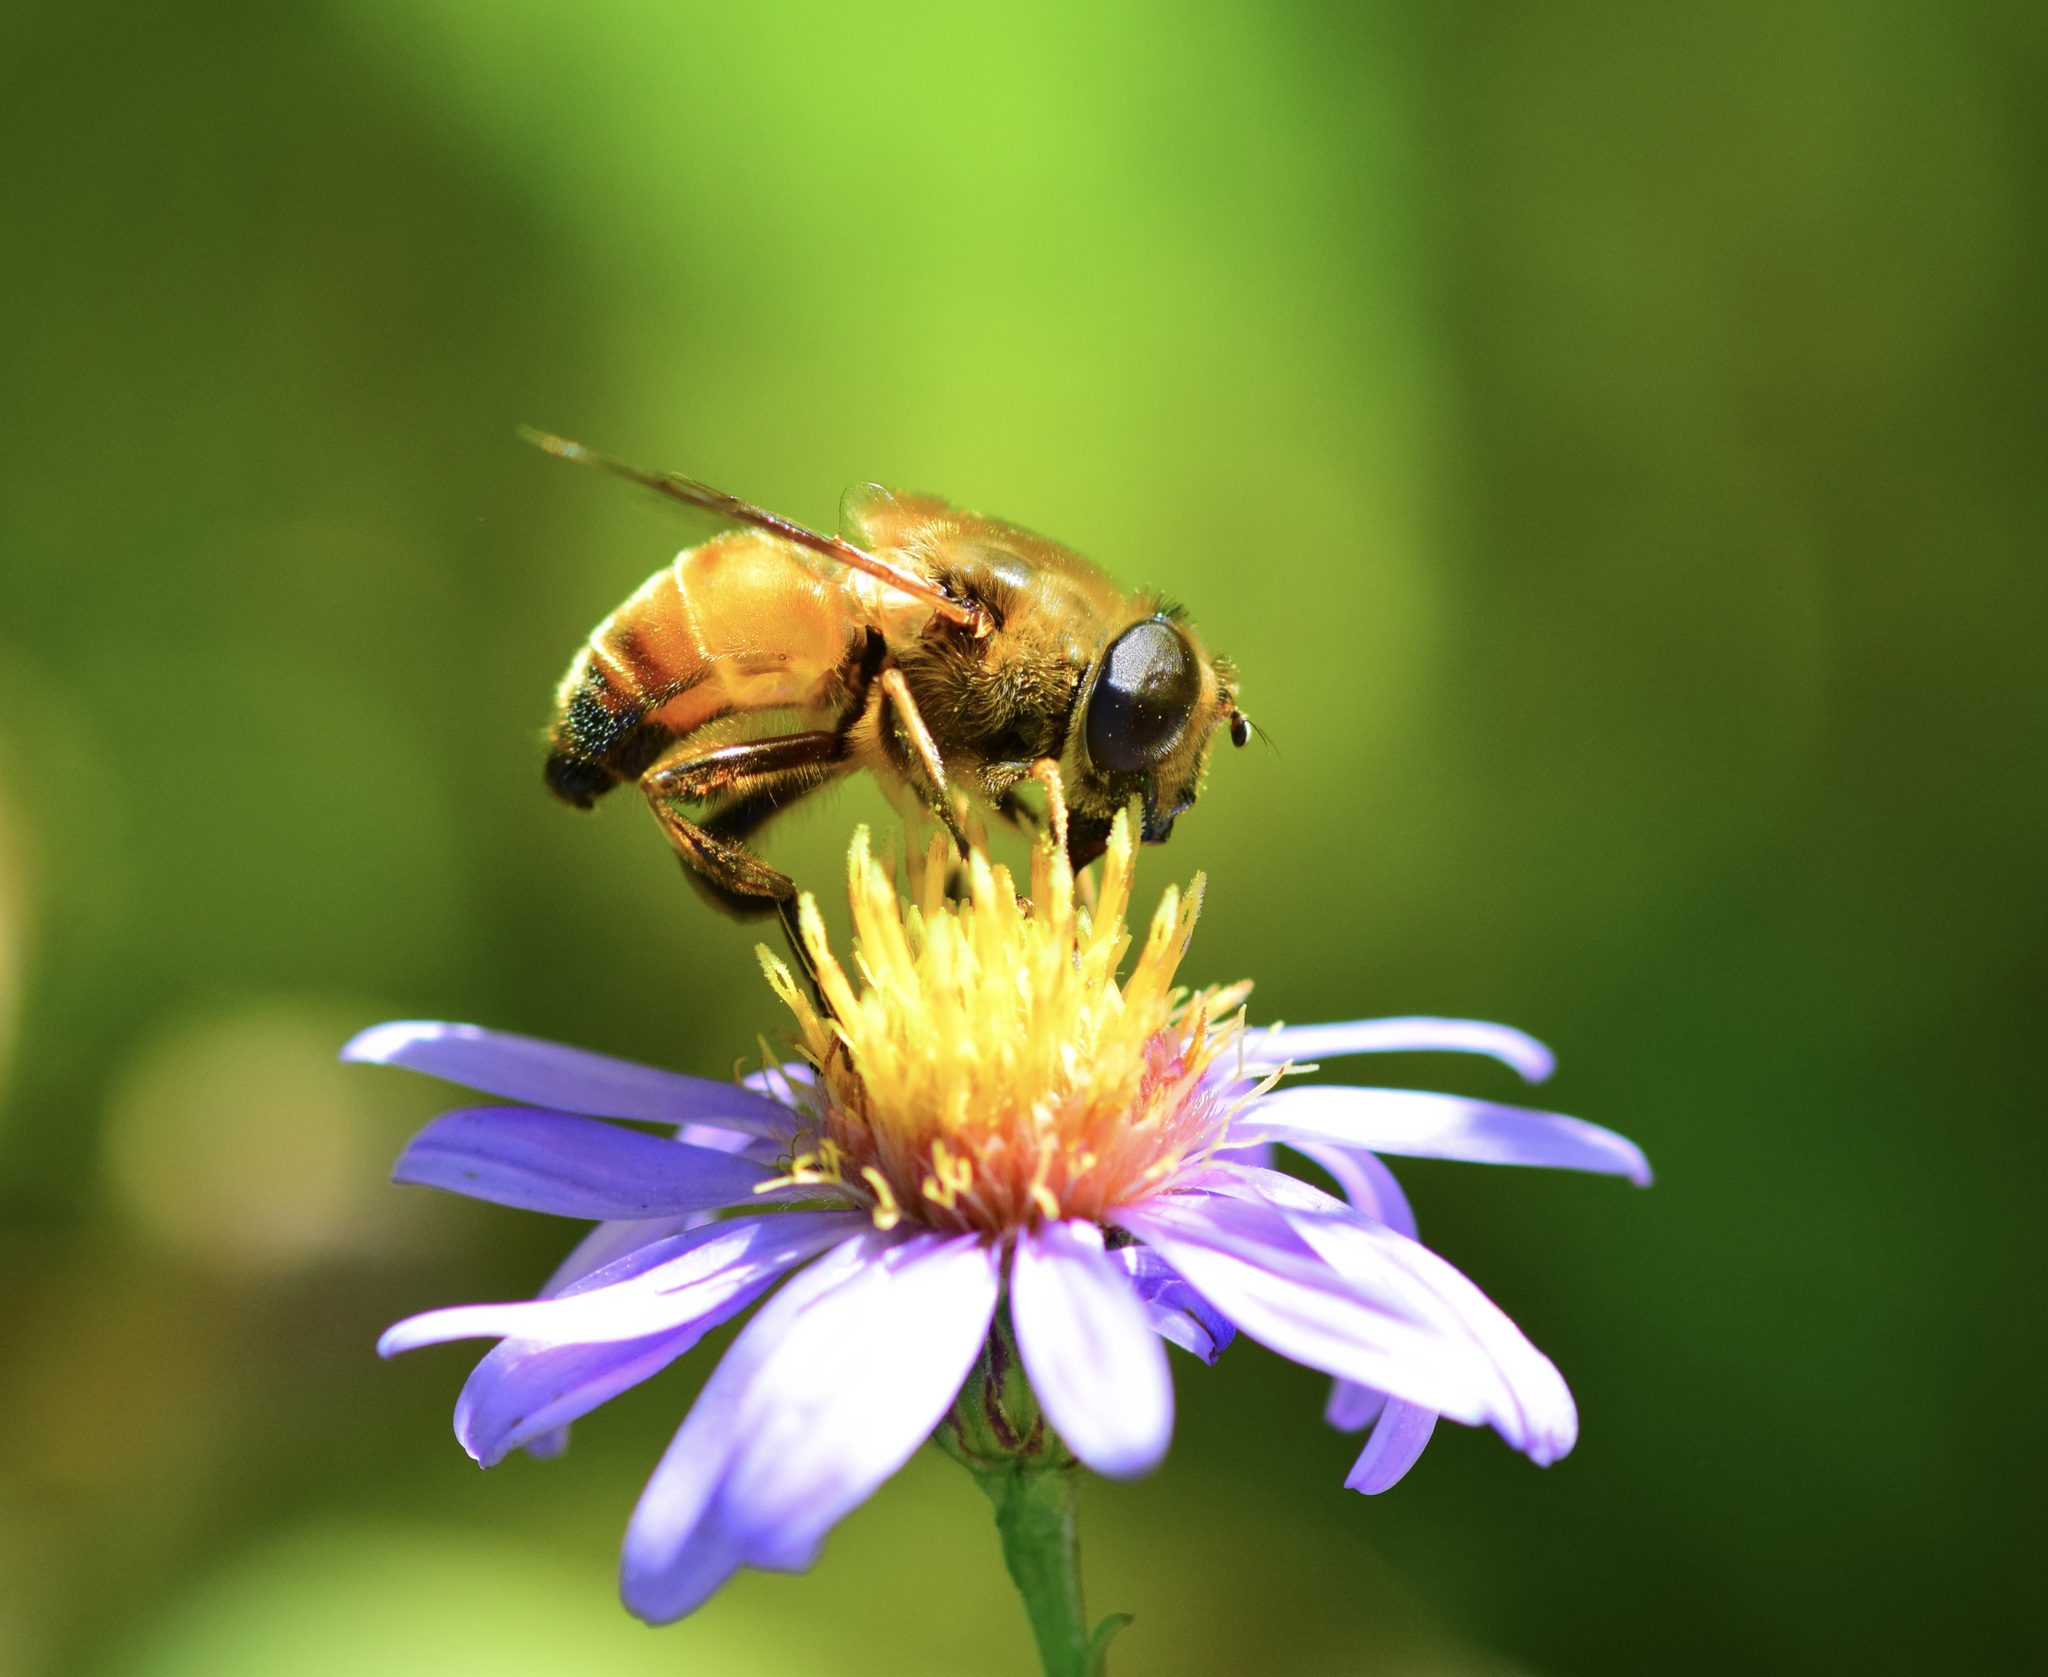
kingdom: Animalia
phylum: Arthropoda
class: Insecta
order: Diptera
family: Syrphidae
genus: Eristalis
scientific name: Eristalis tenax
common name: Drone fly
